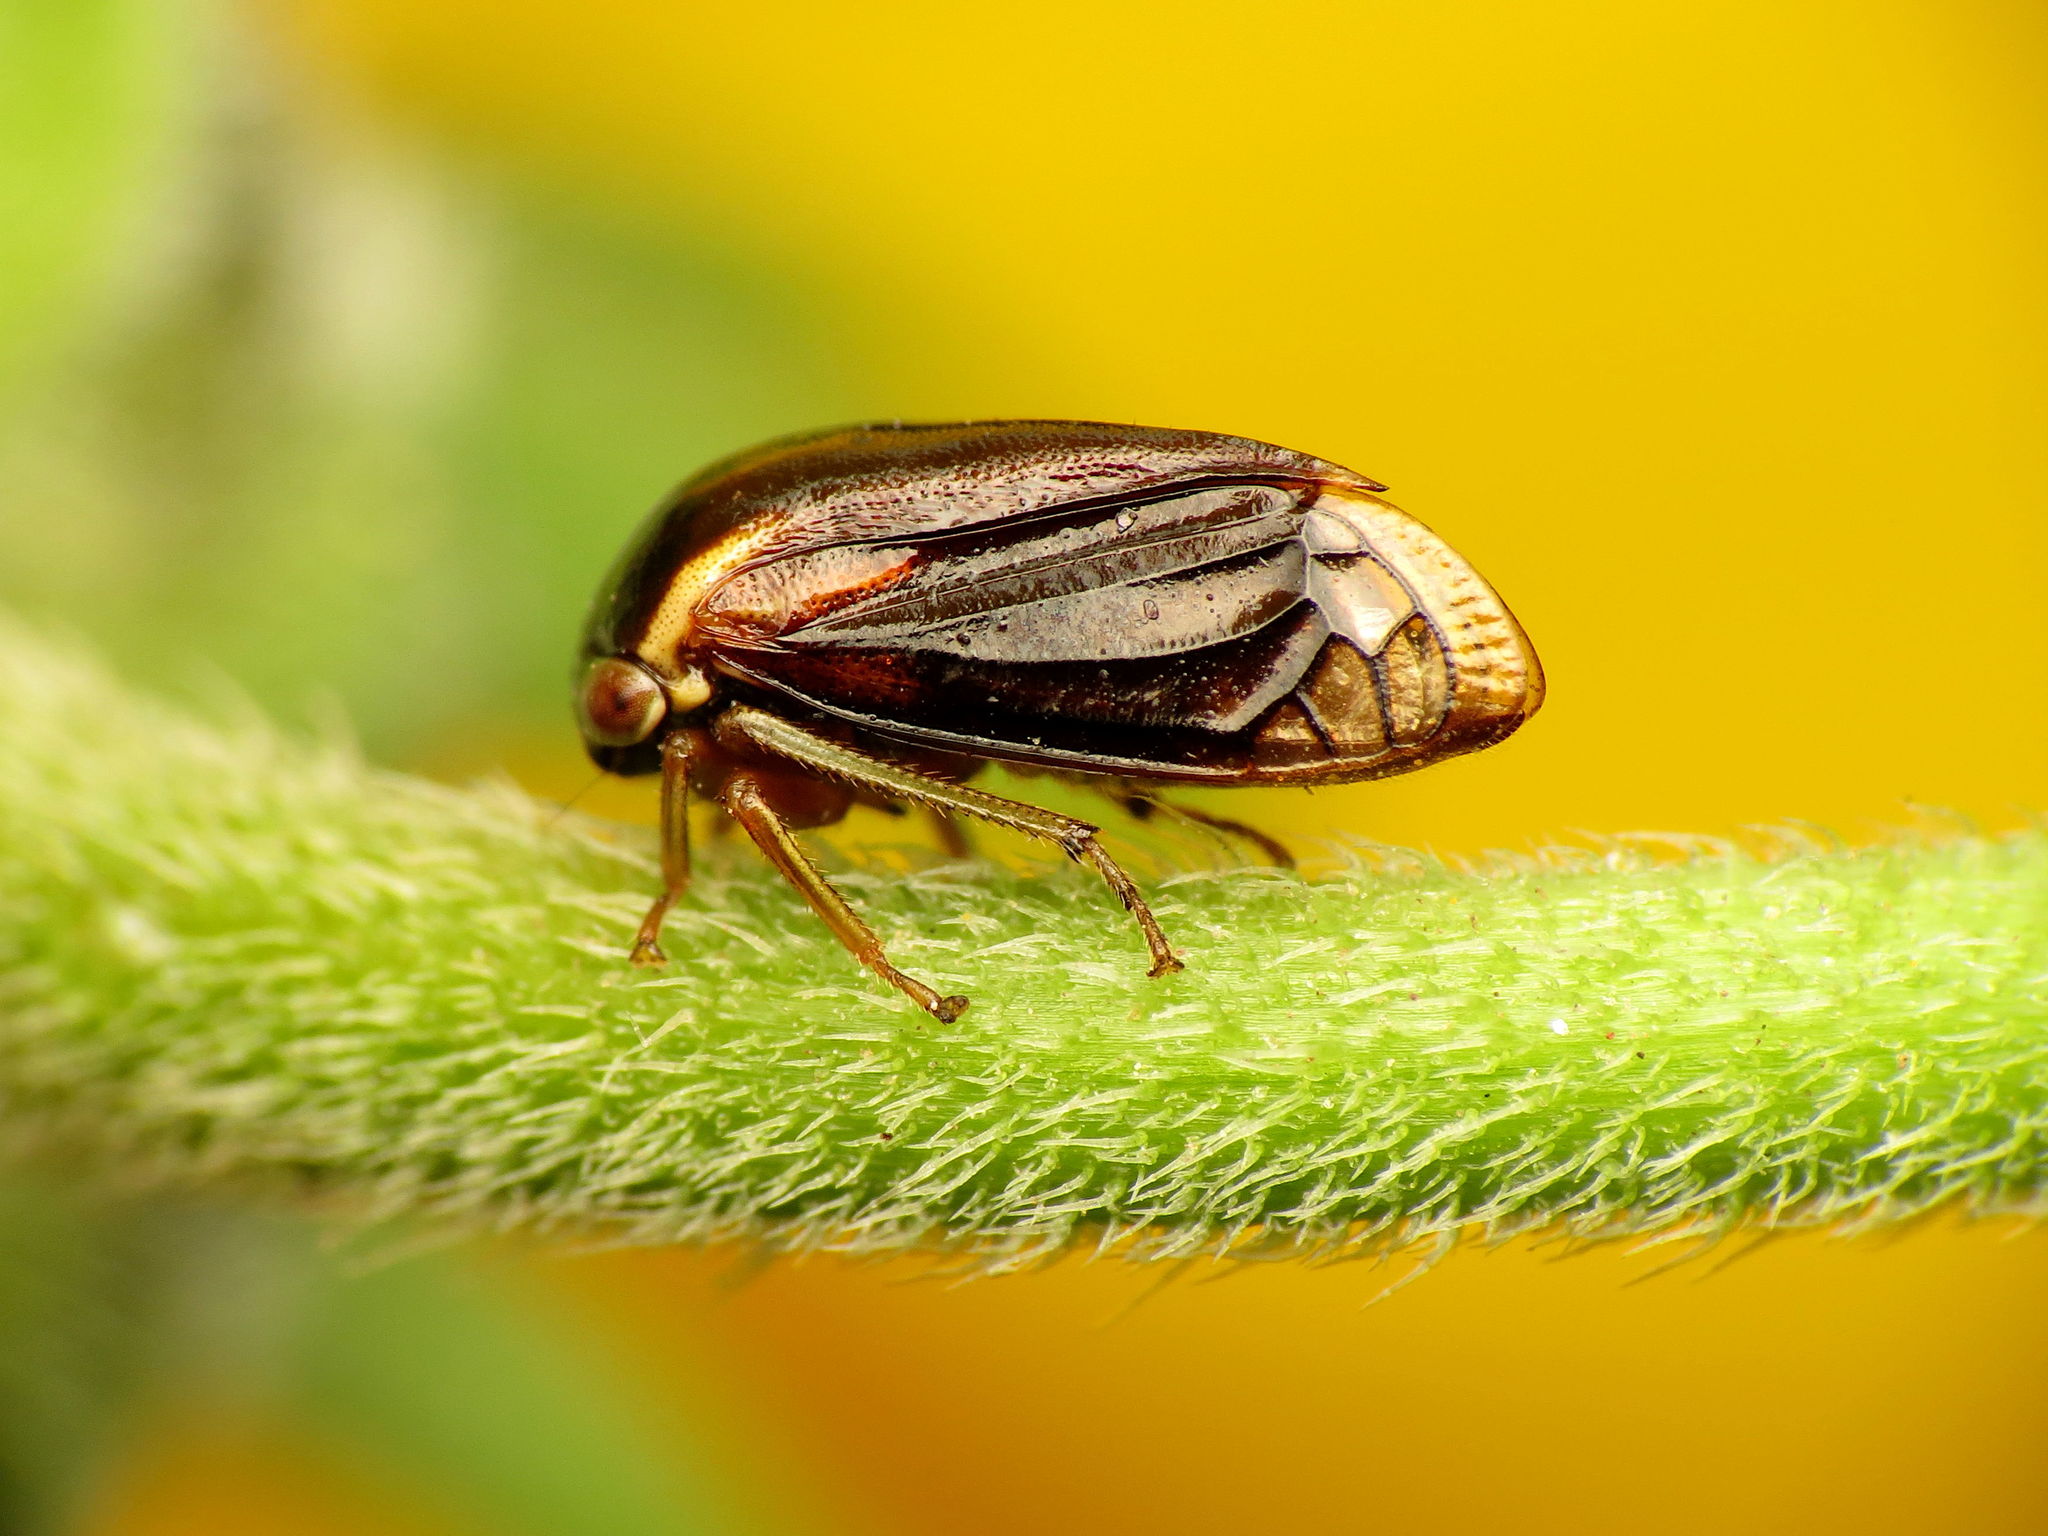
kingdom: Animalia
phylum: Arthropoda
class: Insecta
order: Hemiptera
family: Membracidae
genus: Acutalis
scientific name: Acutalis tartarea
